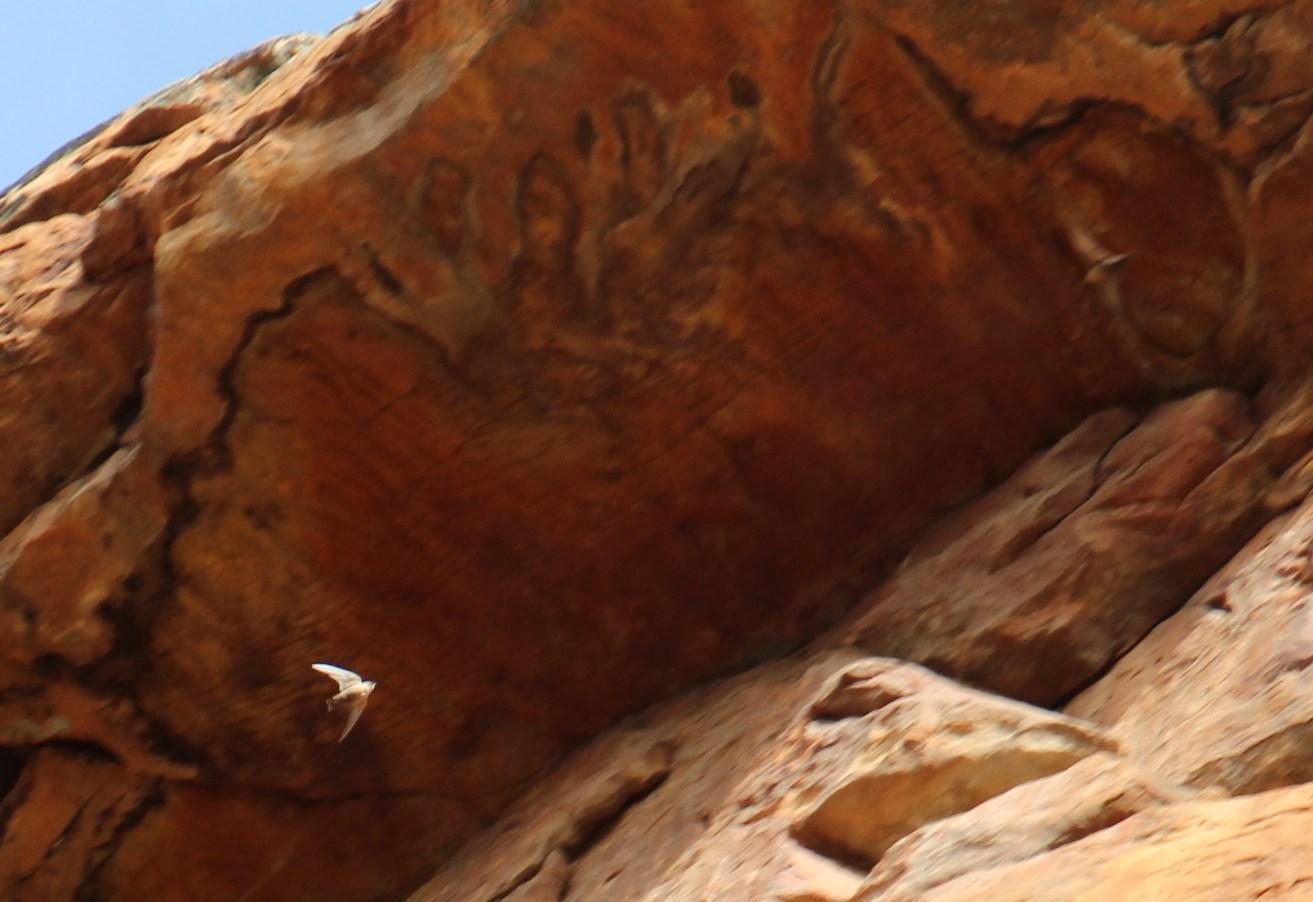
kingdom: Animalia
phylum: Chordata
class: Aves
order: Passeriformes
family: Hirundinidae
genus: Ptyonoprogne
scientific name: Ptyonoprogne fuligula
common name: Rock martin
